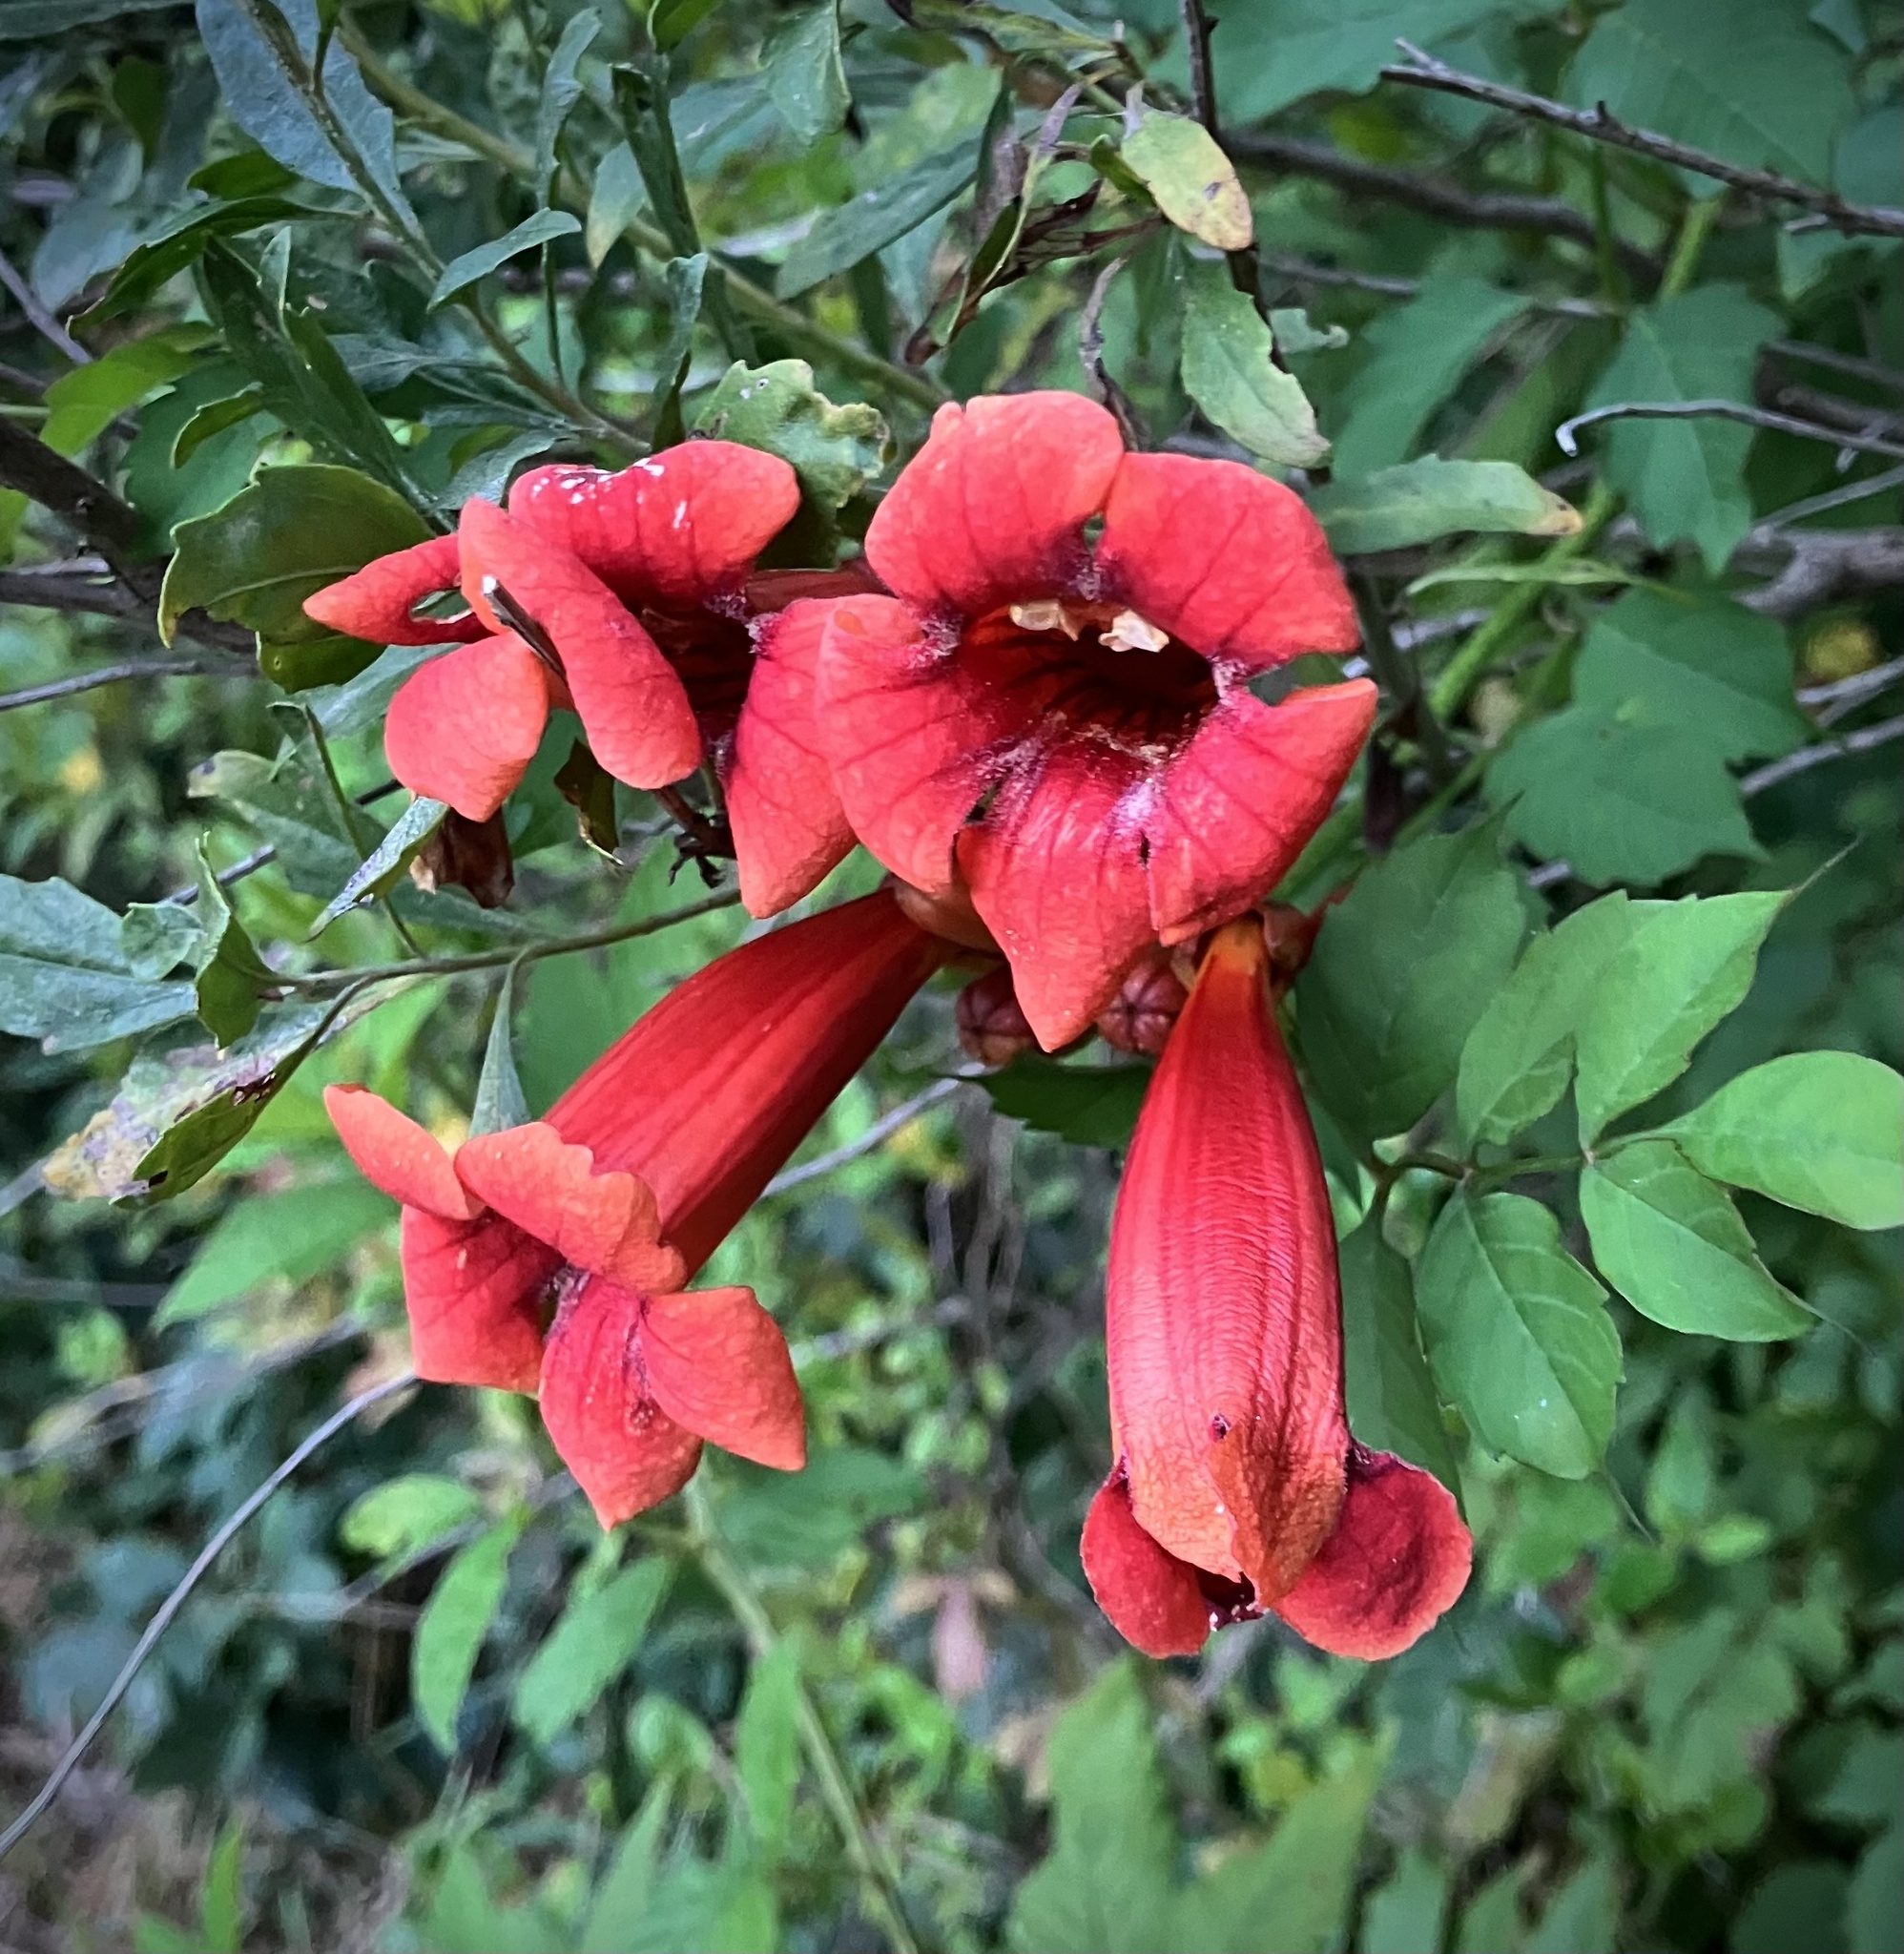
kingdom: Plantae
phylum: Tracheophyta
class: Magnoliopsida
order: Lamiales
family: Bignoniaceae
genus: Campsis
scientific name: Campsis radicans
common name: Trumpet-creeper
